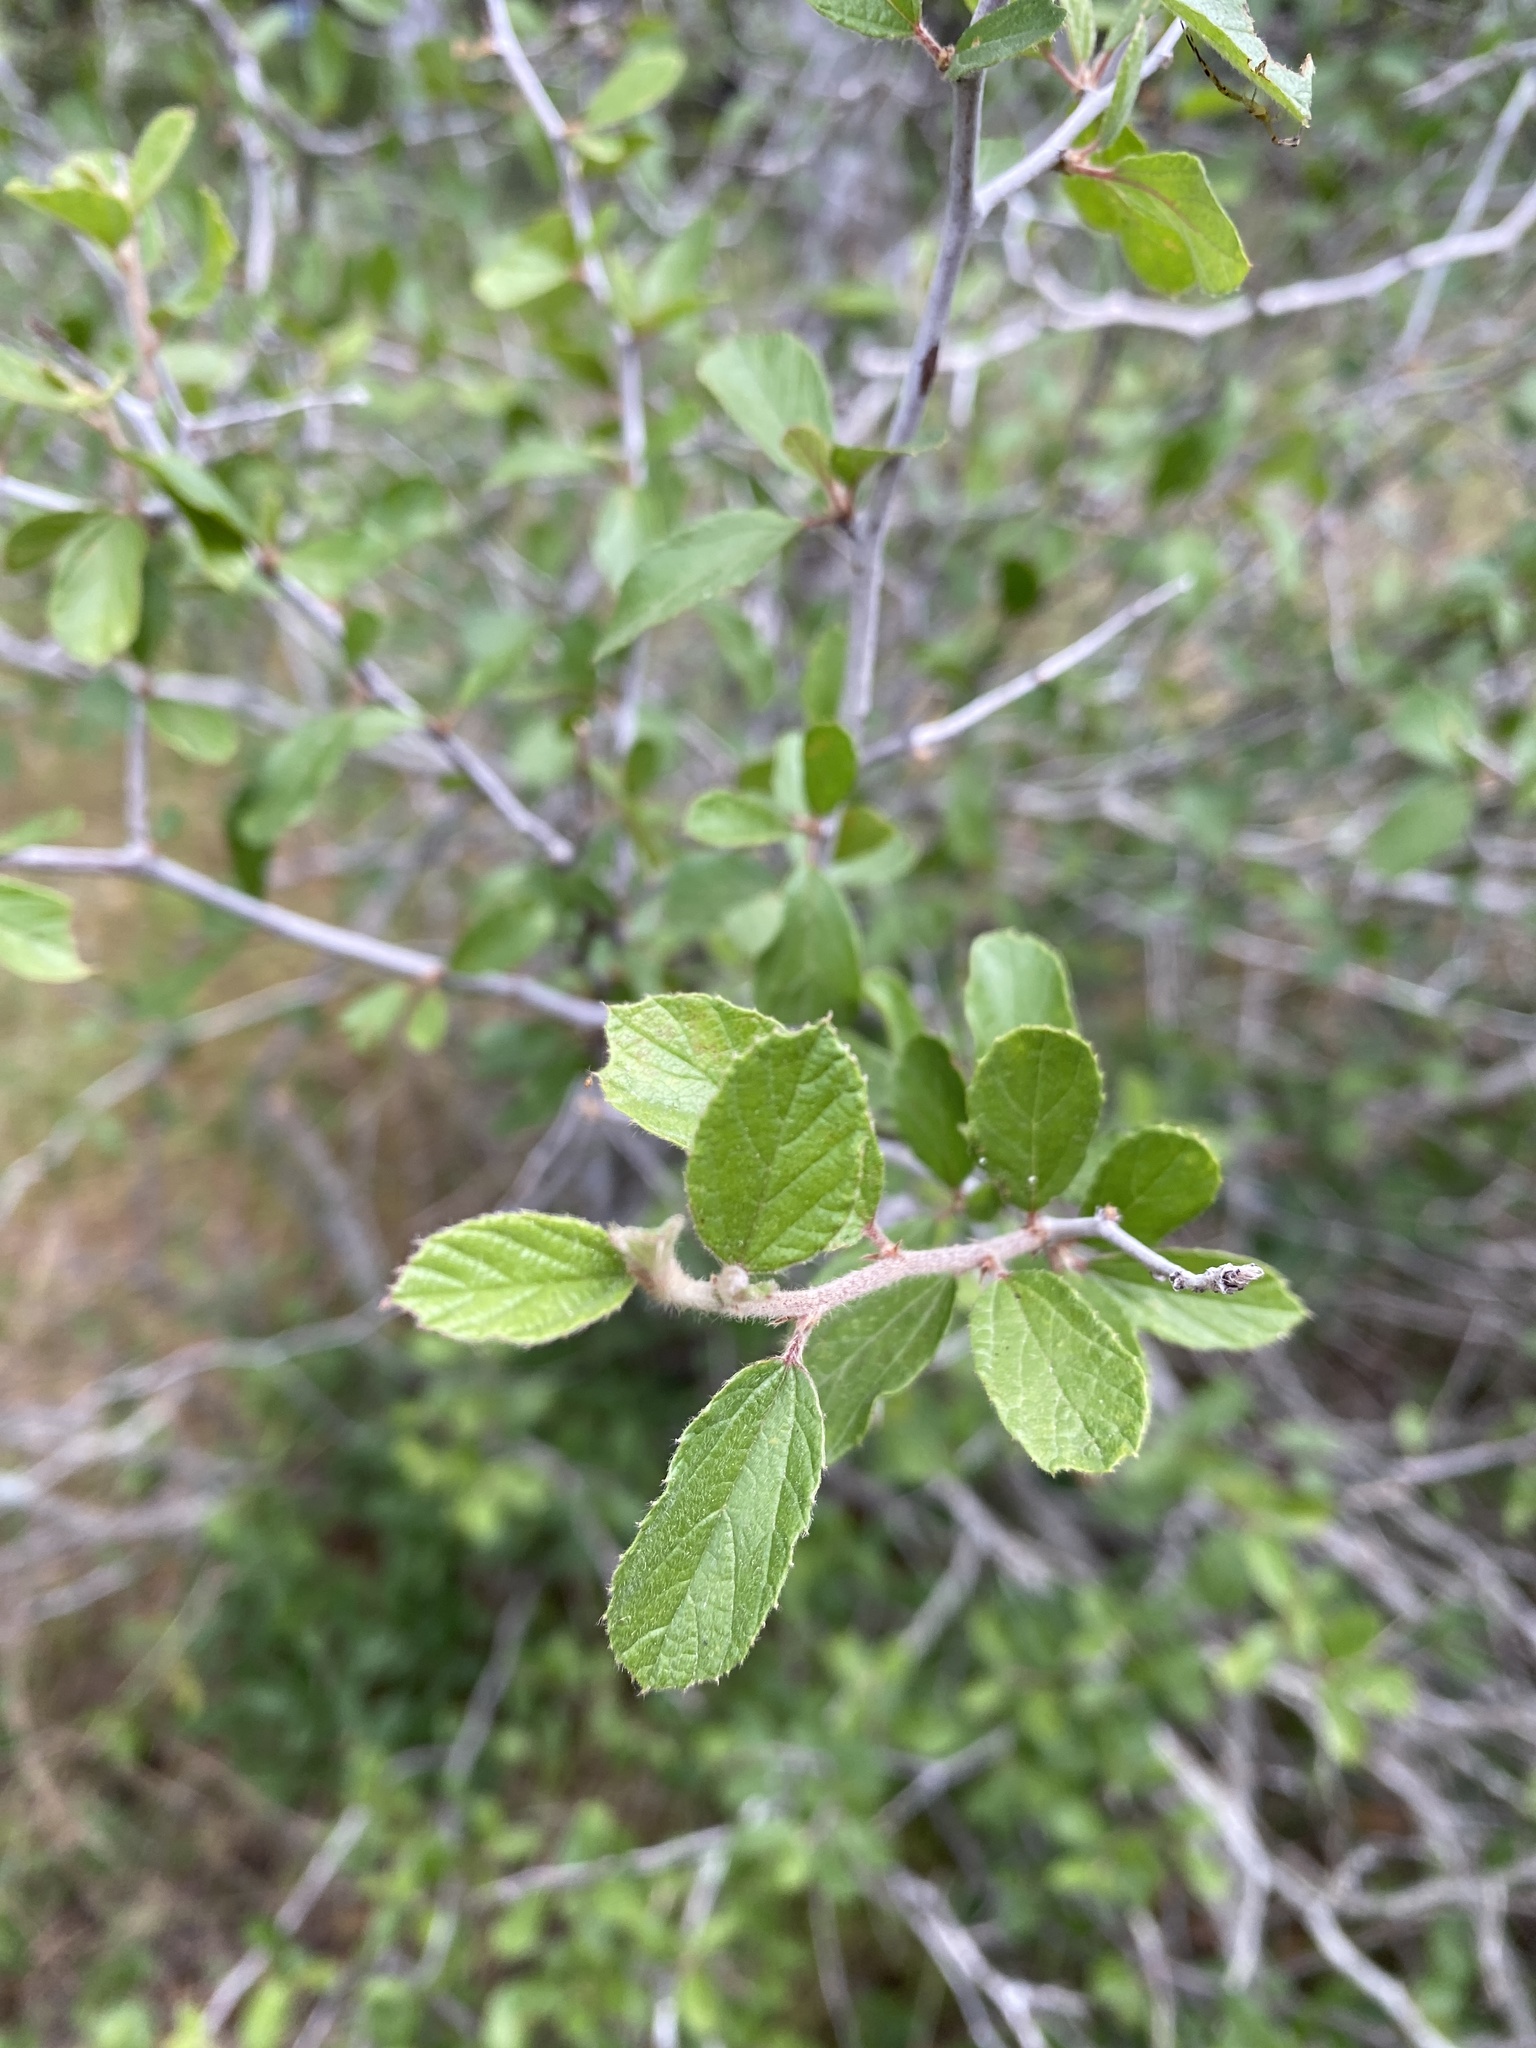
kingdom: Plantae
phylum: Tracheophyta
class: Magnoliopsida
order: Rosales
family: Rhamnaceae
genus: Colubrina
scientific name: Colubrina texensis
